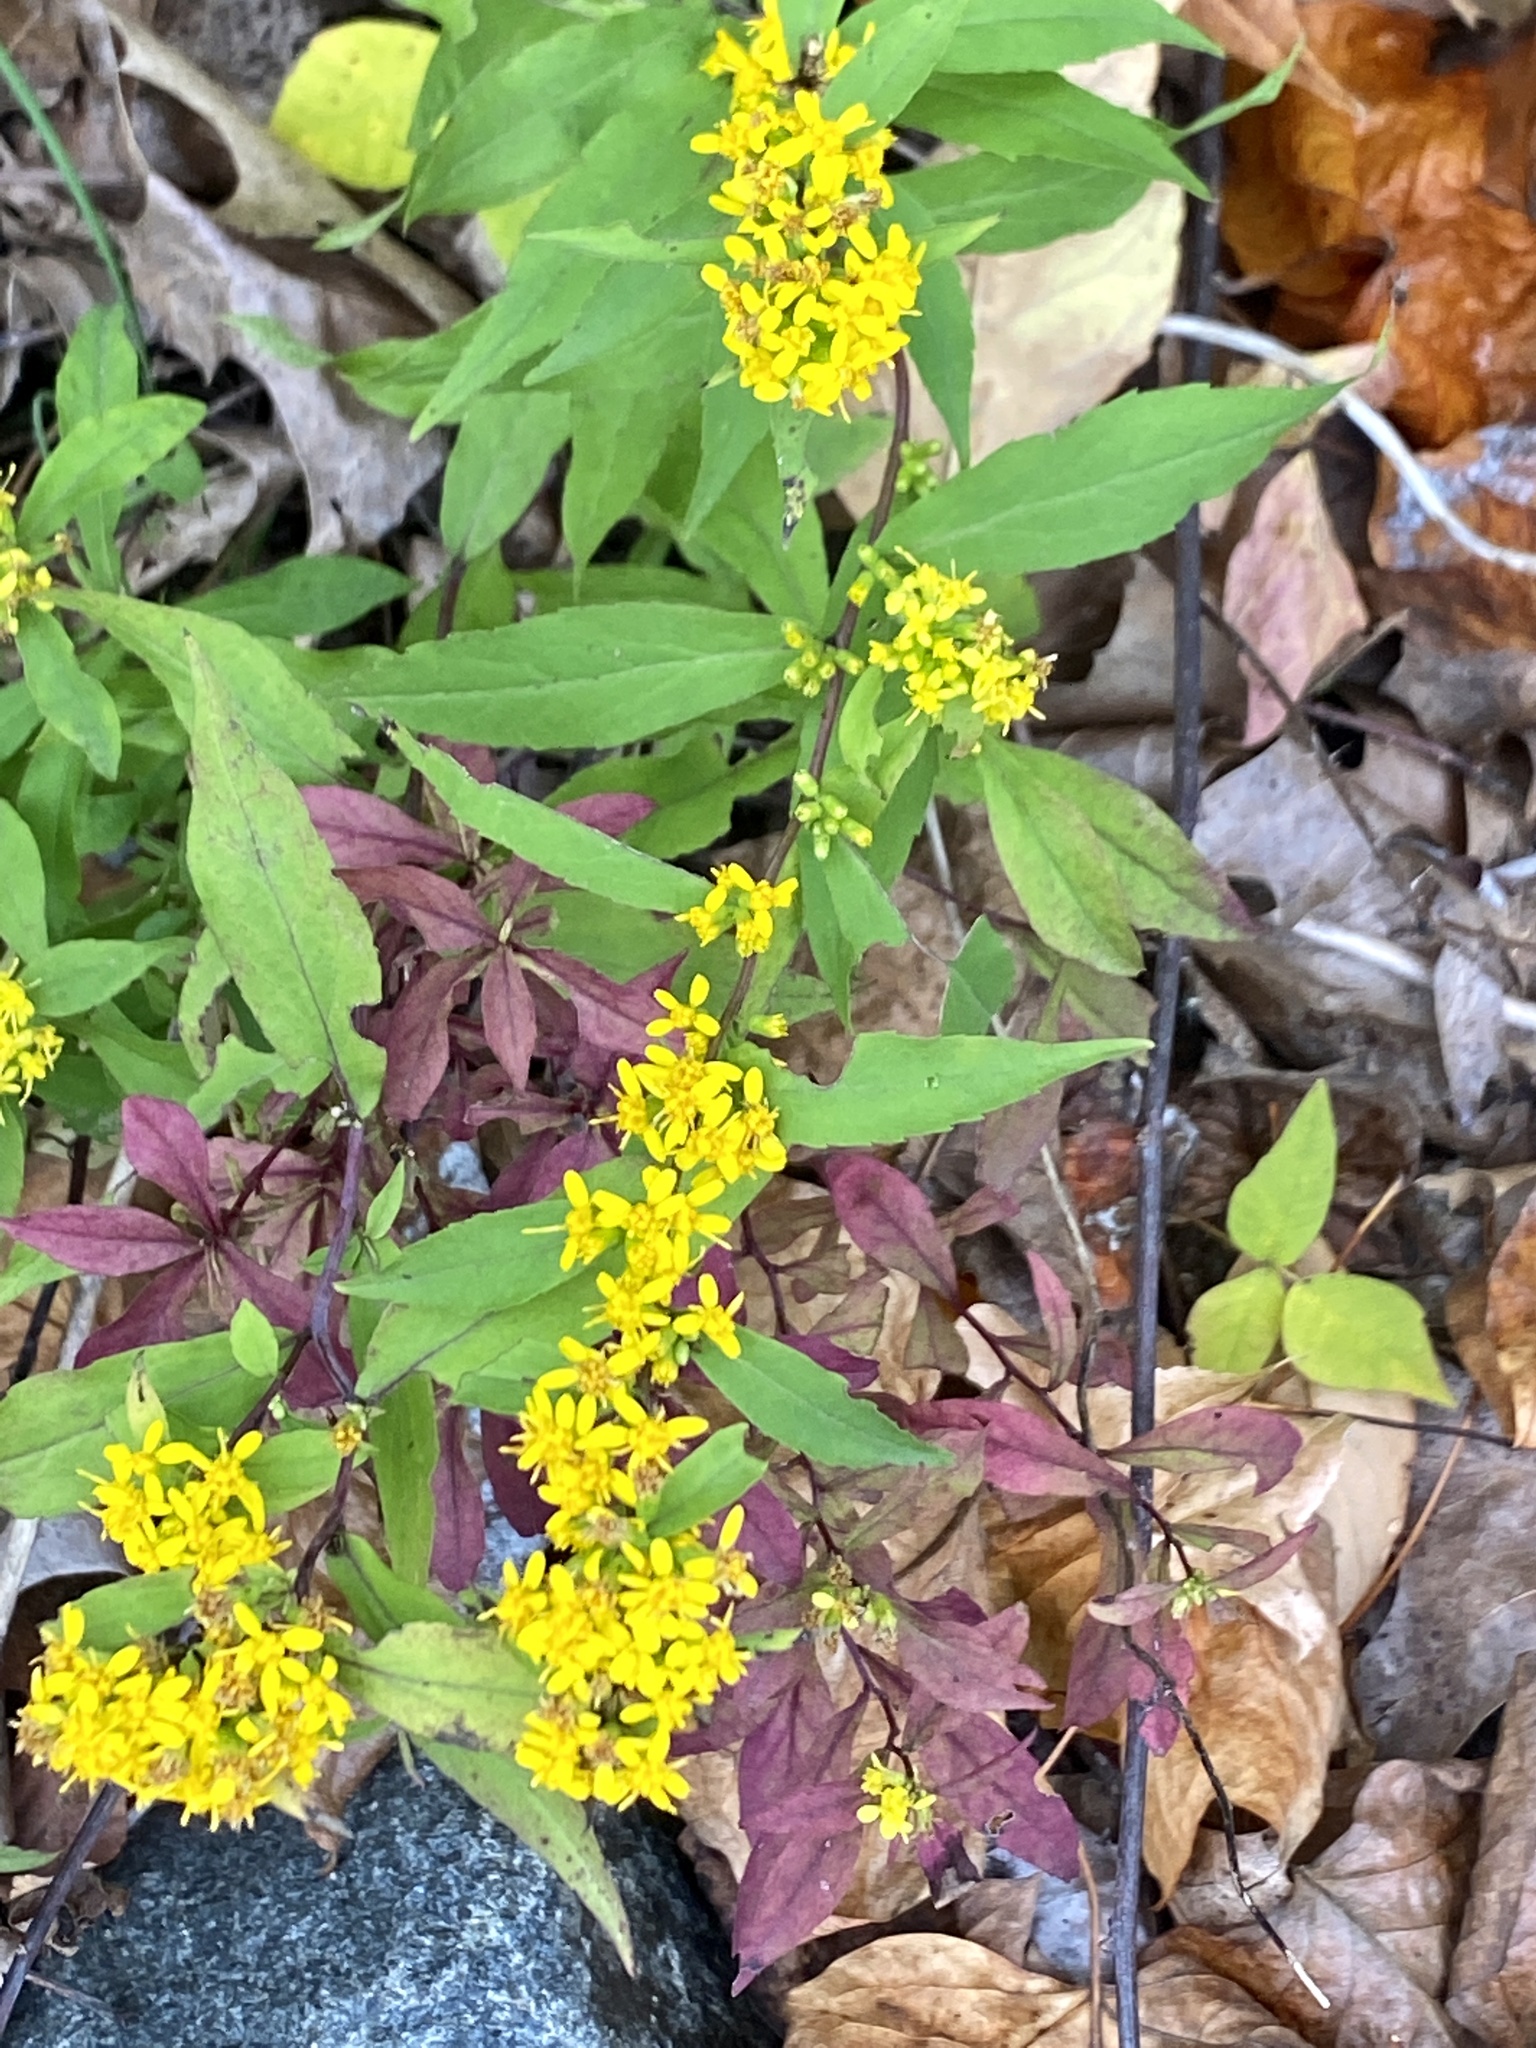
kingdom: Plantae
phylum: Tracheophyta
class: Magnoliopsida
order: Asterales
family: Asteraceae
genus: Solidago
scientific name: Solidago caesia
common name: Woodland goldenrod
